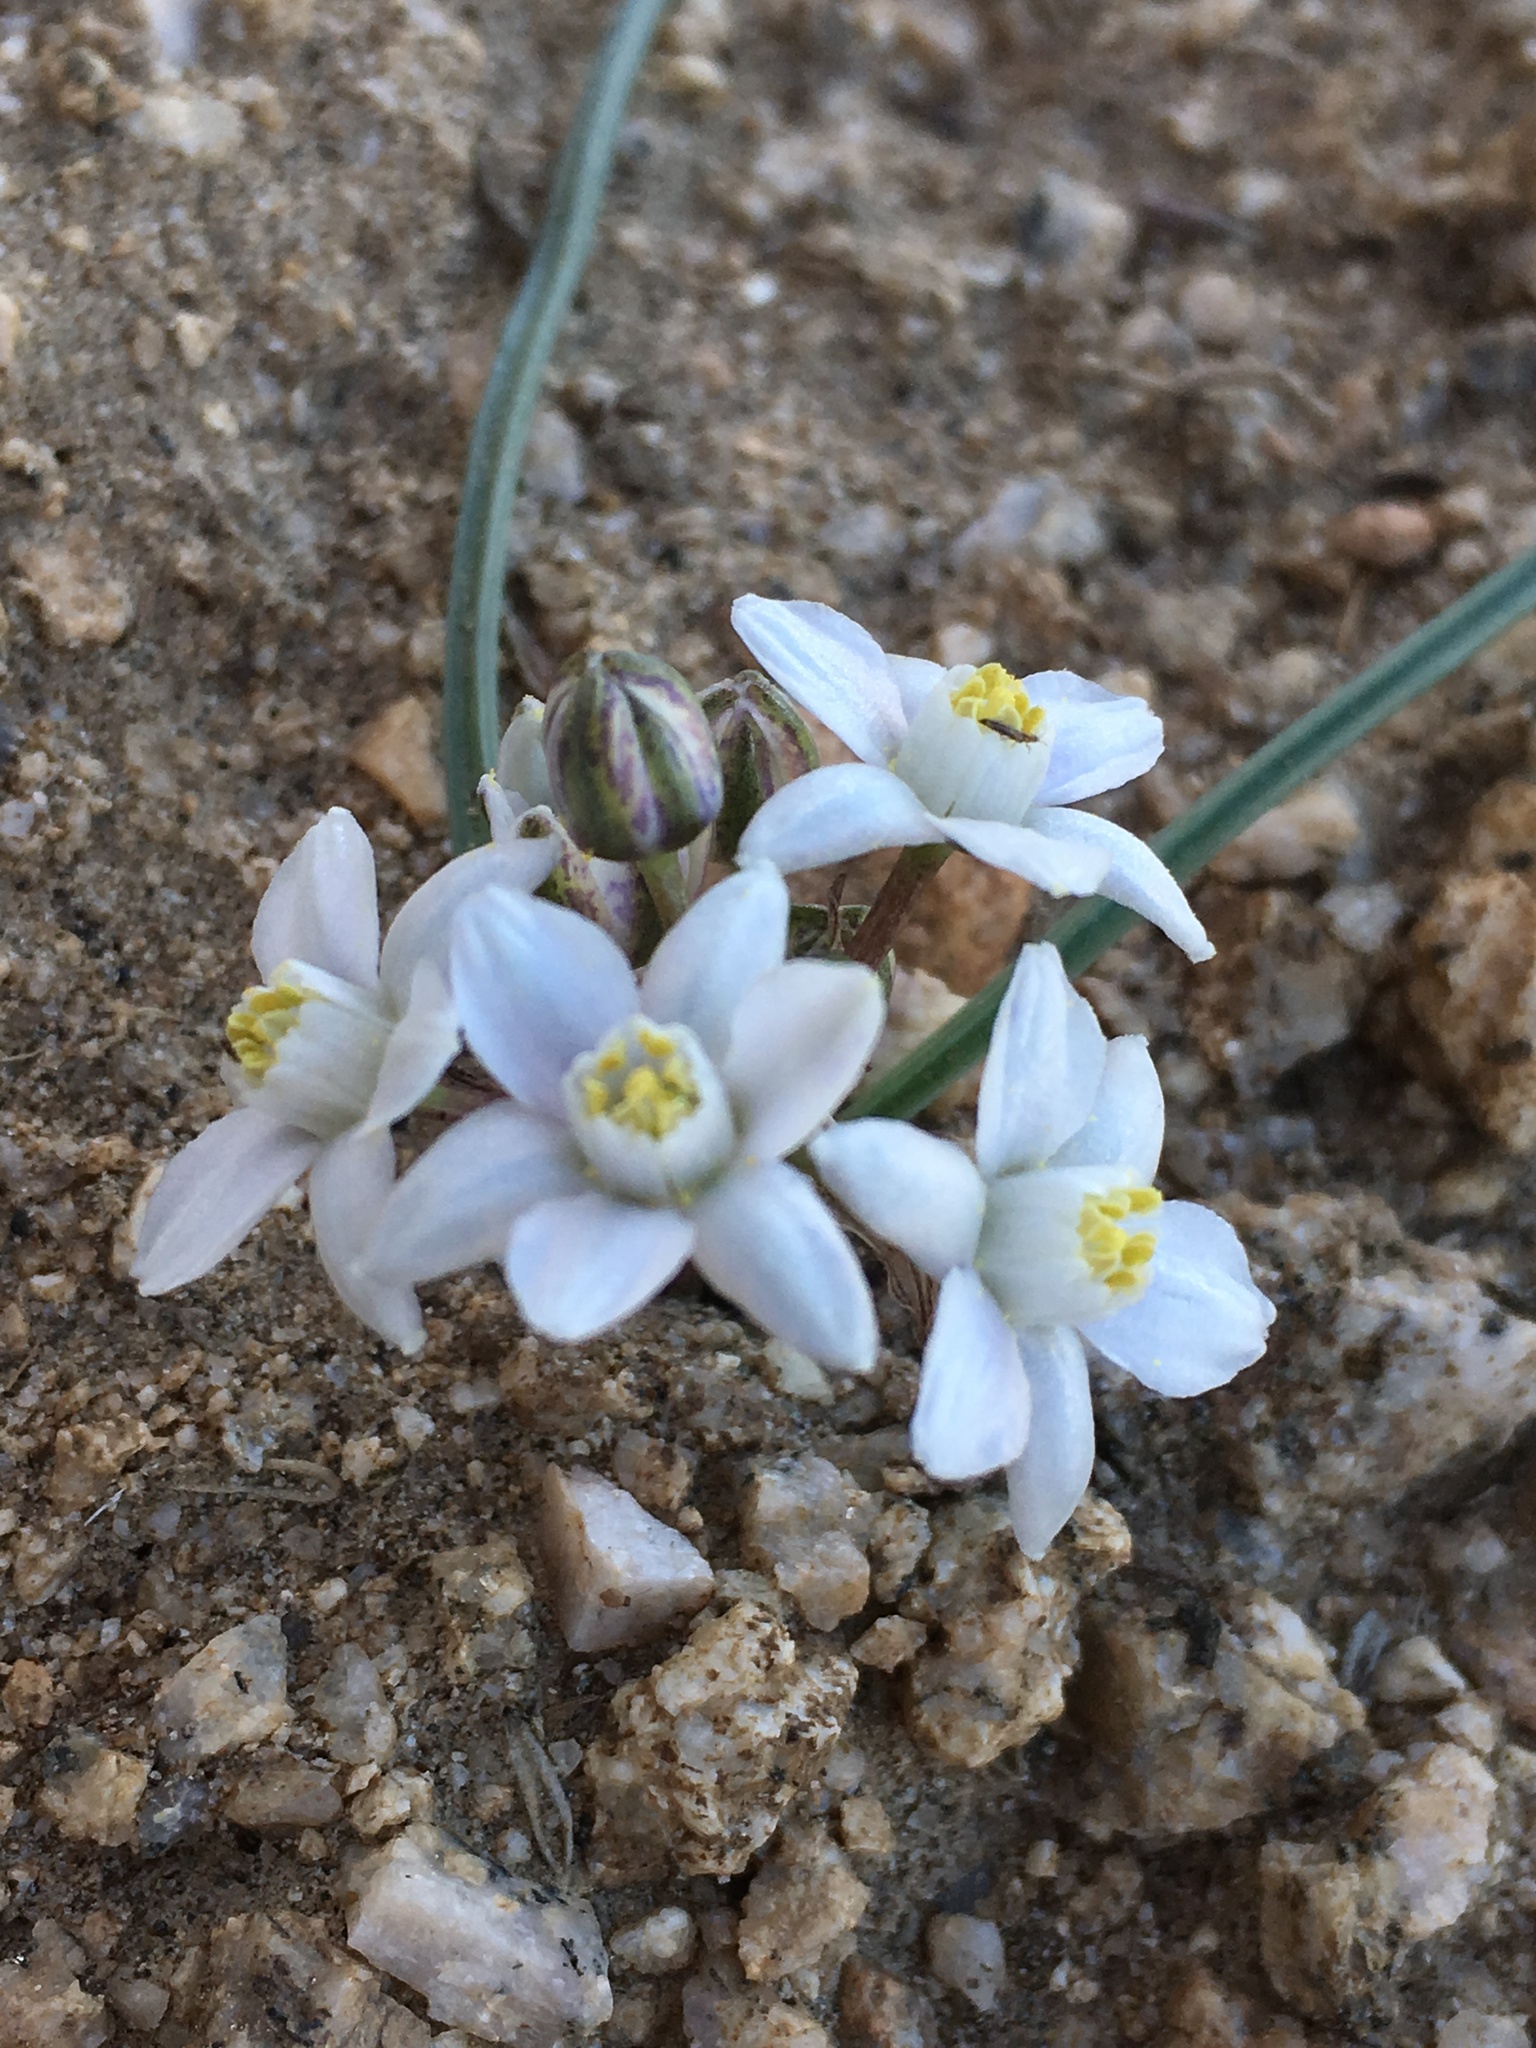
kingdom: Plantae
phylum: Tracheophyta
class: Liliopsida
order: Asparagales
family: Asparagaceae
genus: Muilla
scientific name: Muilla coronata
